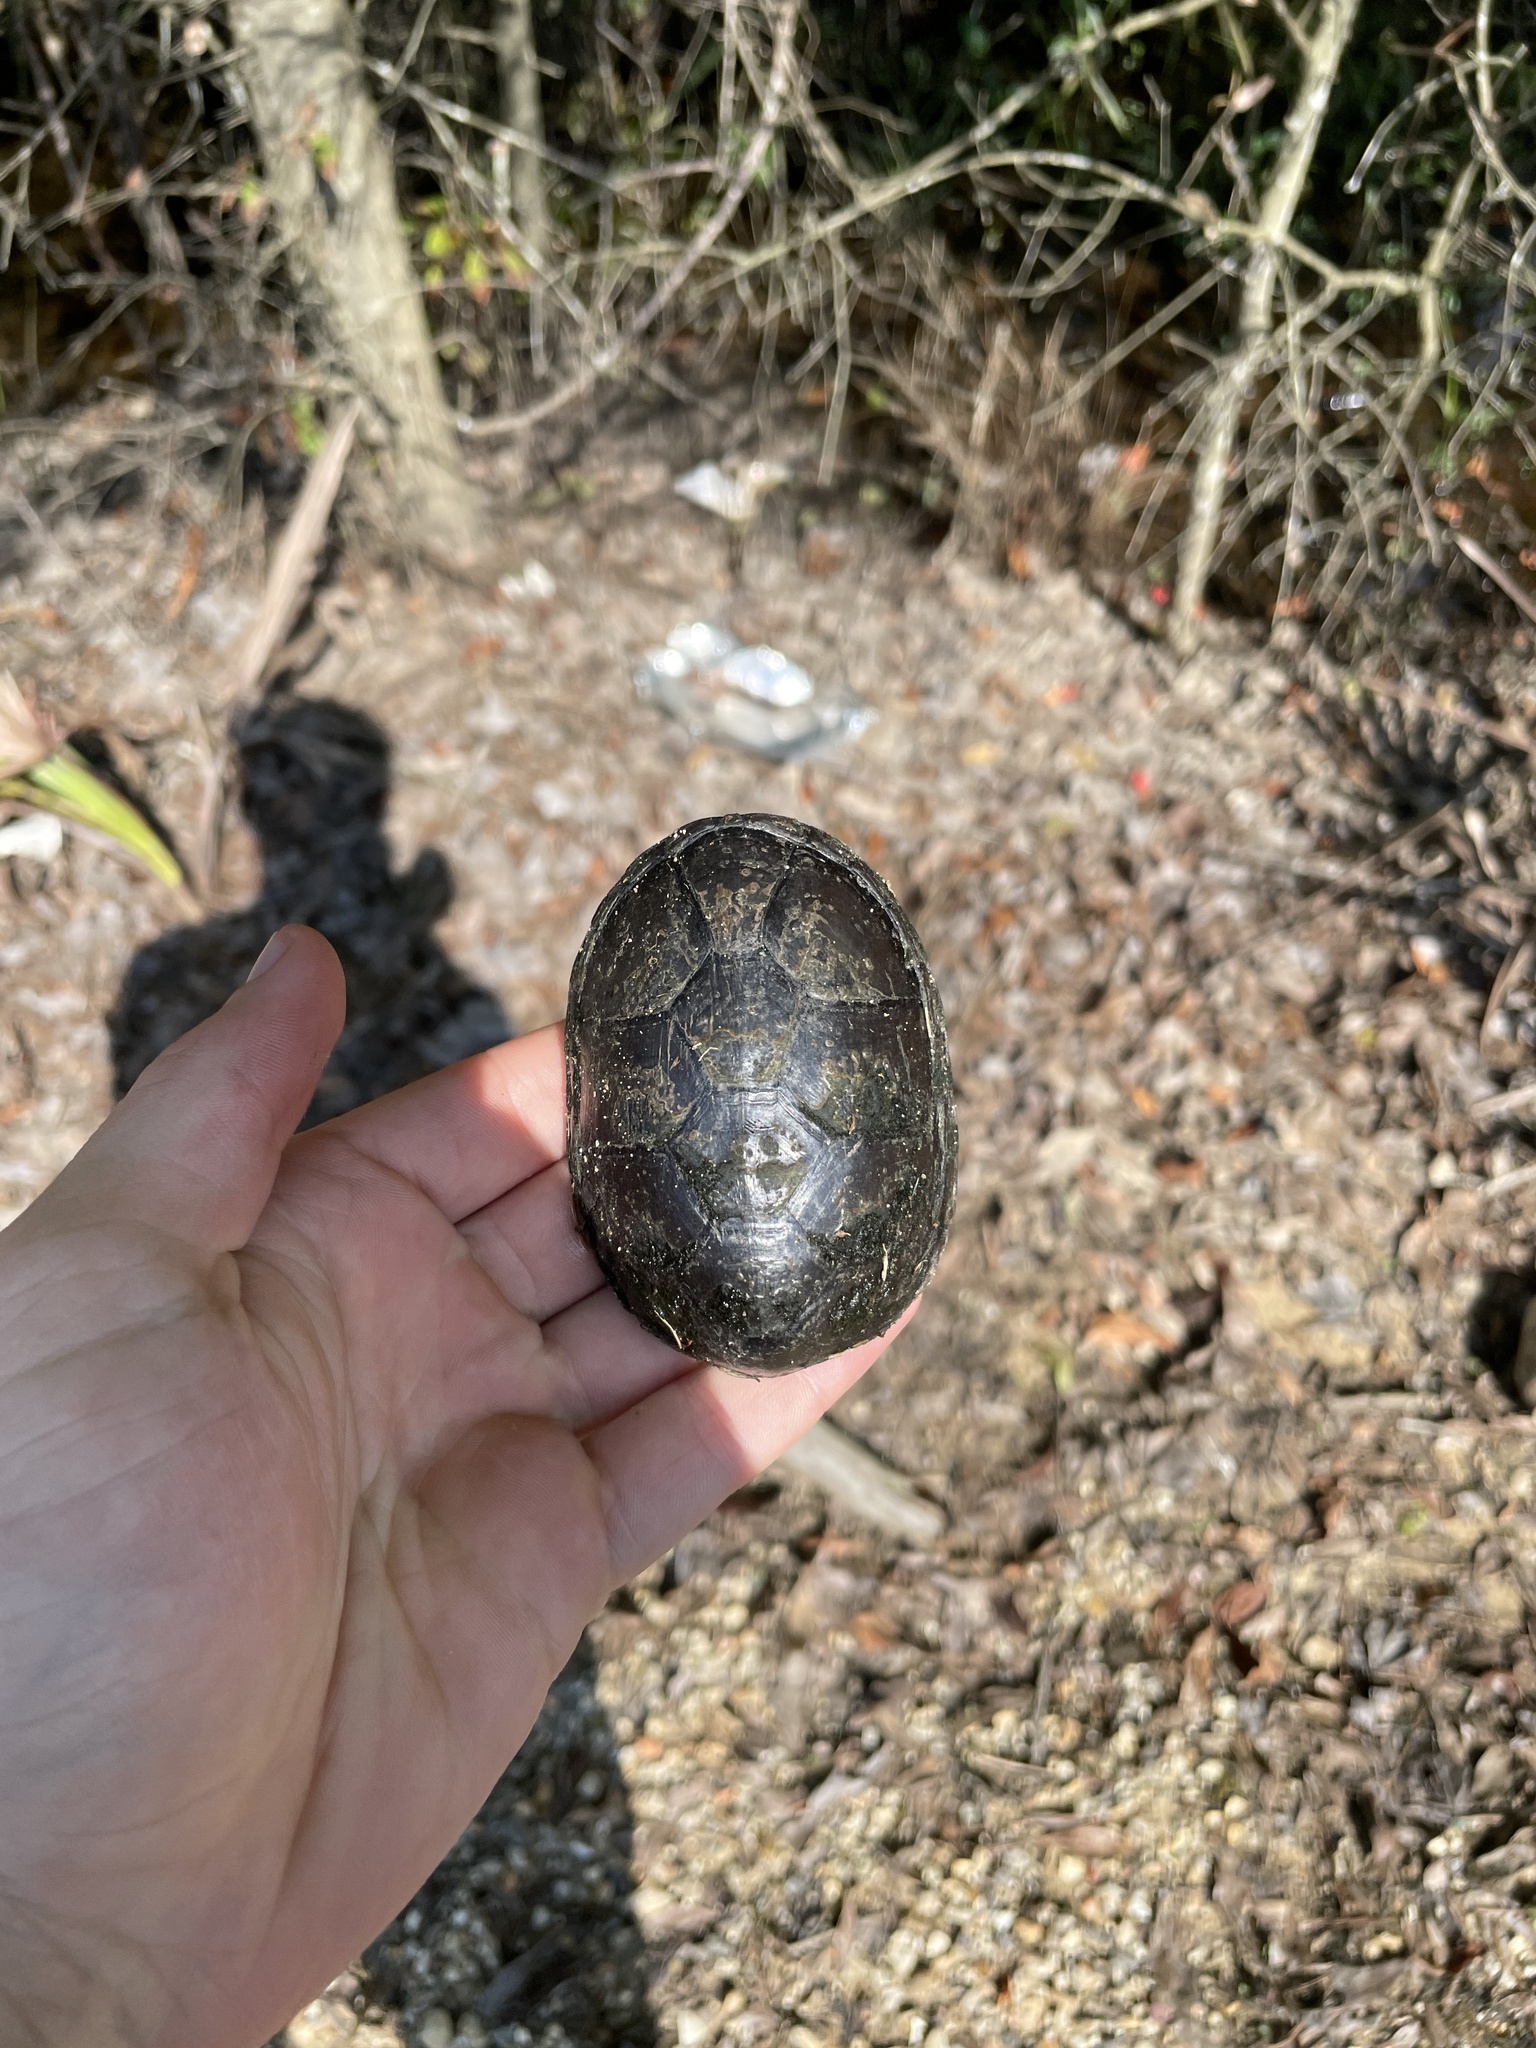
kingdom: Animalia
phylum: Chordata
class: Testudines
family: Kinosternidae
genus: Kinosternon
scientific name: Kinosternon subrubrum
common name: Eastern mud turtle
